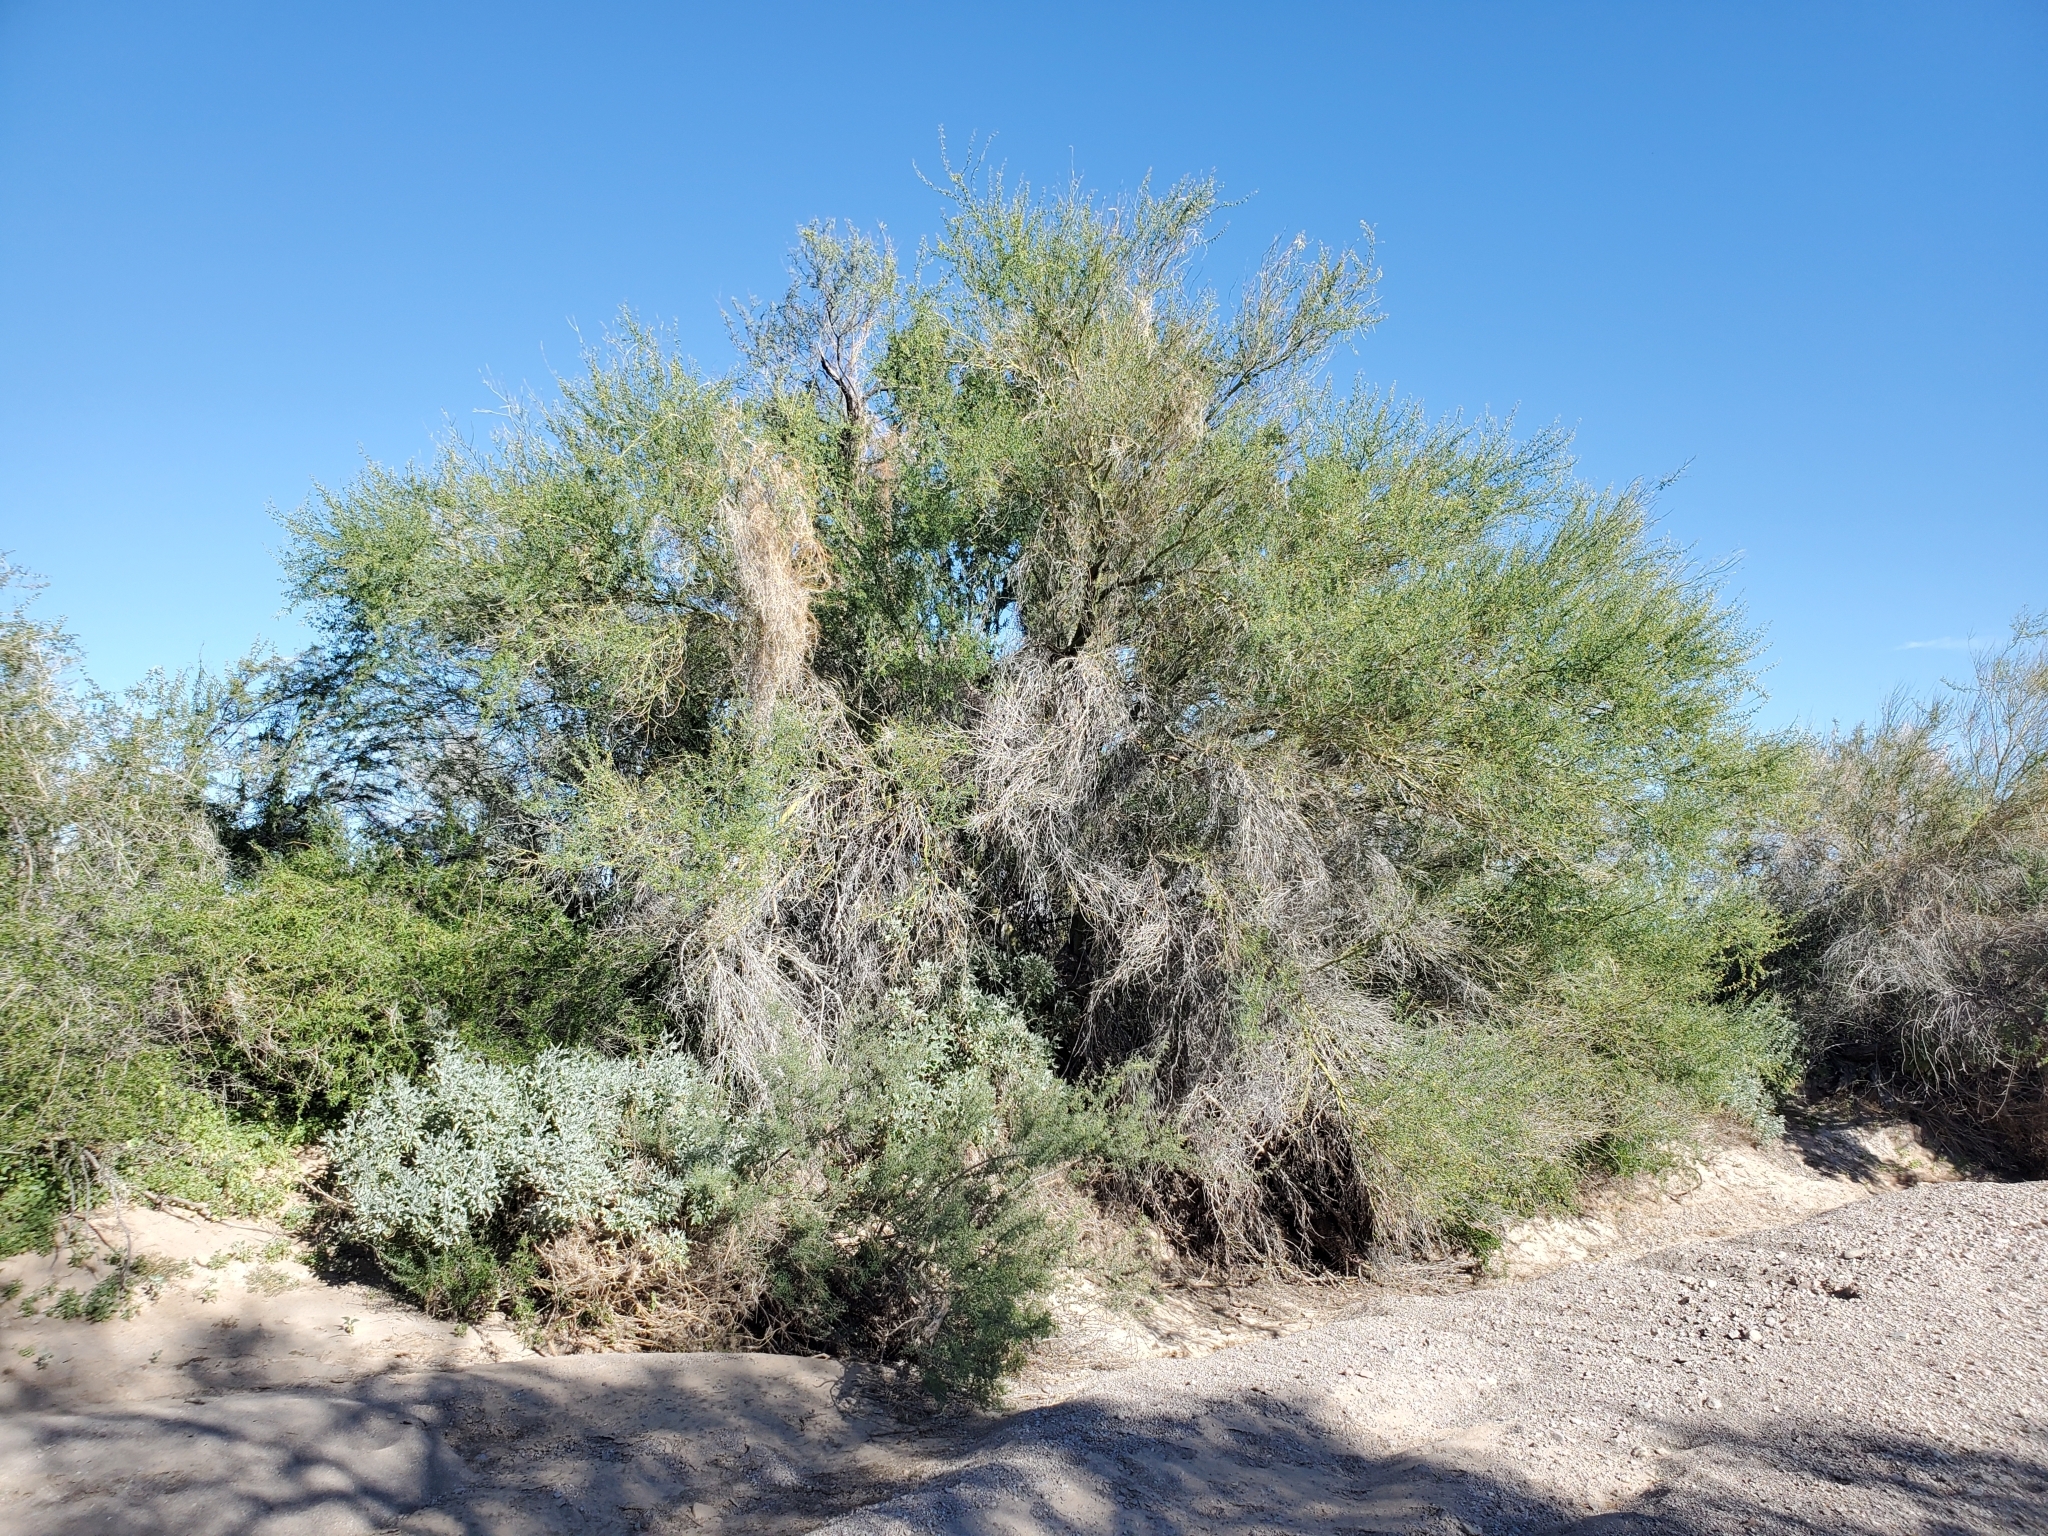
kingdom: Plantae
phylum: Tracheophyta
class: Magnoliopsida
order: Fabales
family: Fabaceae
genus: Parkinsonia
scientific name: Parkinsonia florida
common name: Blue paloverde
